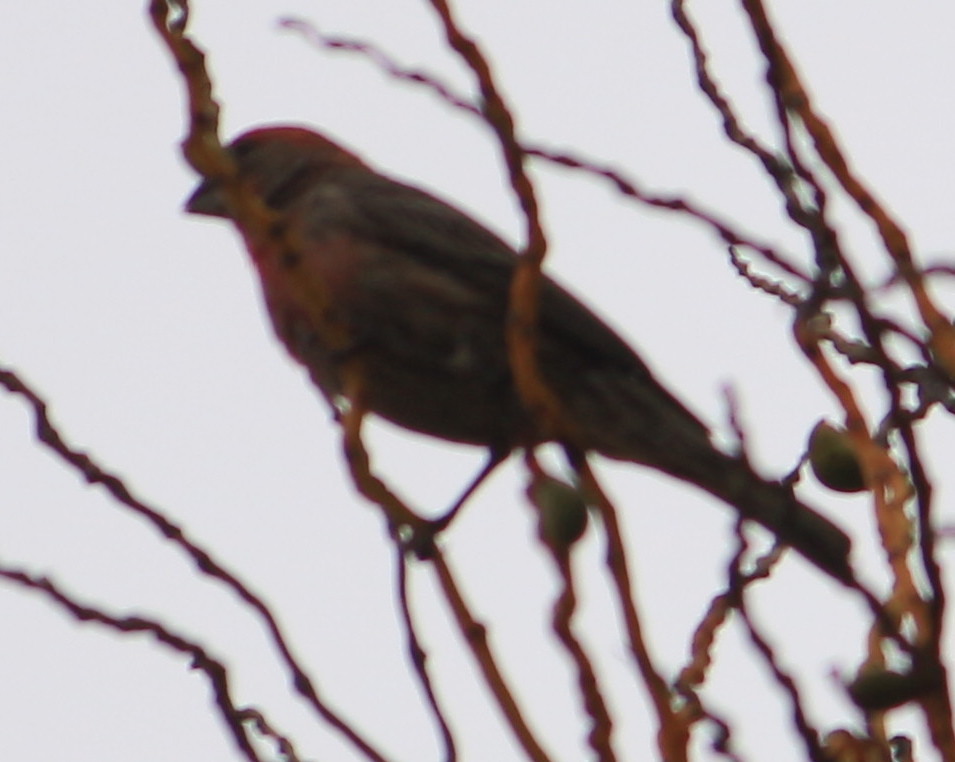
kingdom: Animalia
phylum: Chordata
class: Aves
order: Passeriformes
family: Fringillidae
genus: Haemorhous
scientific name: Haemorhous mexicanus
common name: House finch
